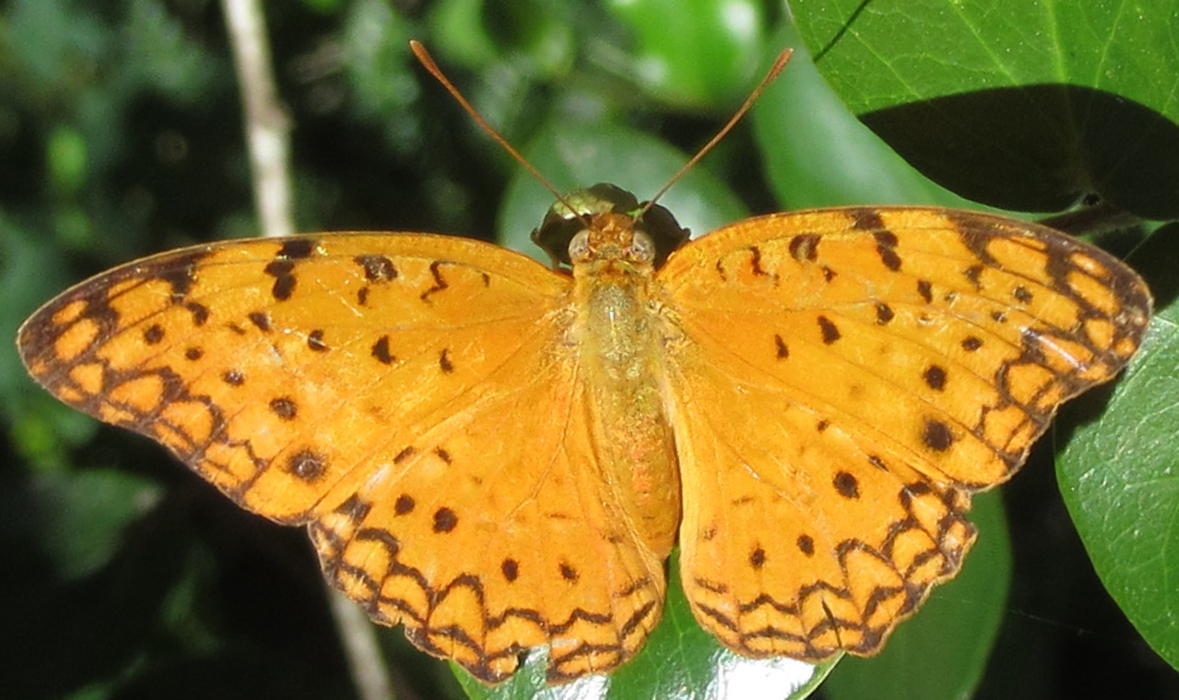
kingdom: Animalia
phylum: Arthropoda
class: Insecta
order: Lepidoptera
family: Nymphalidae
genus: Phalanta
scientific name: Phalanta phalantha
